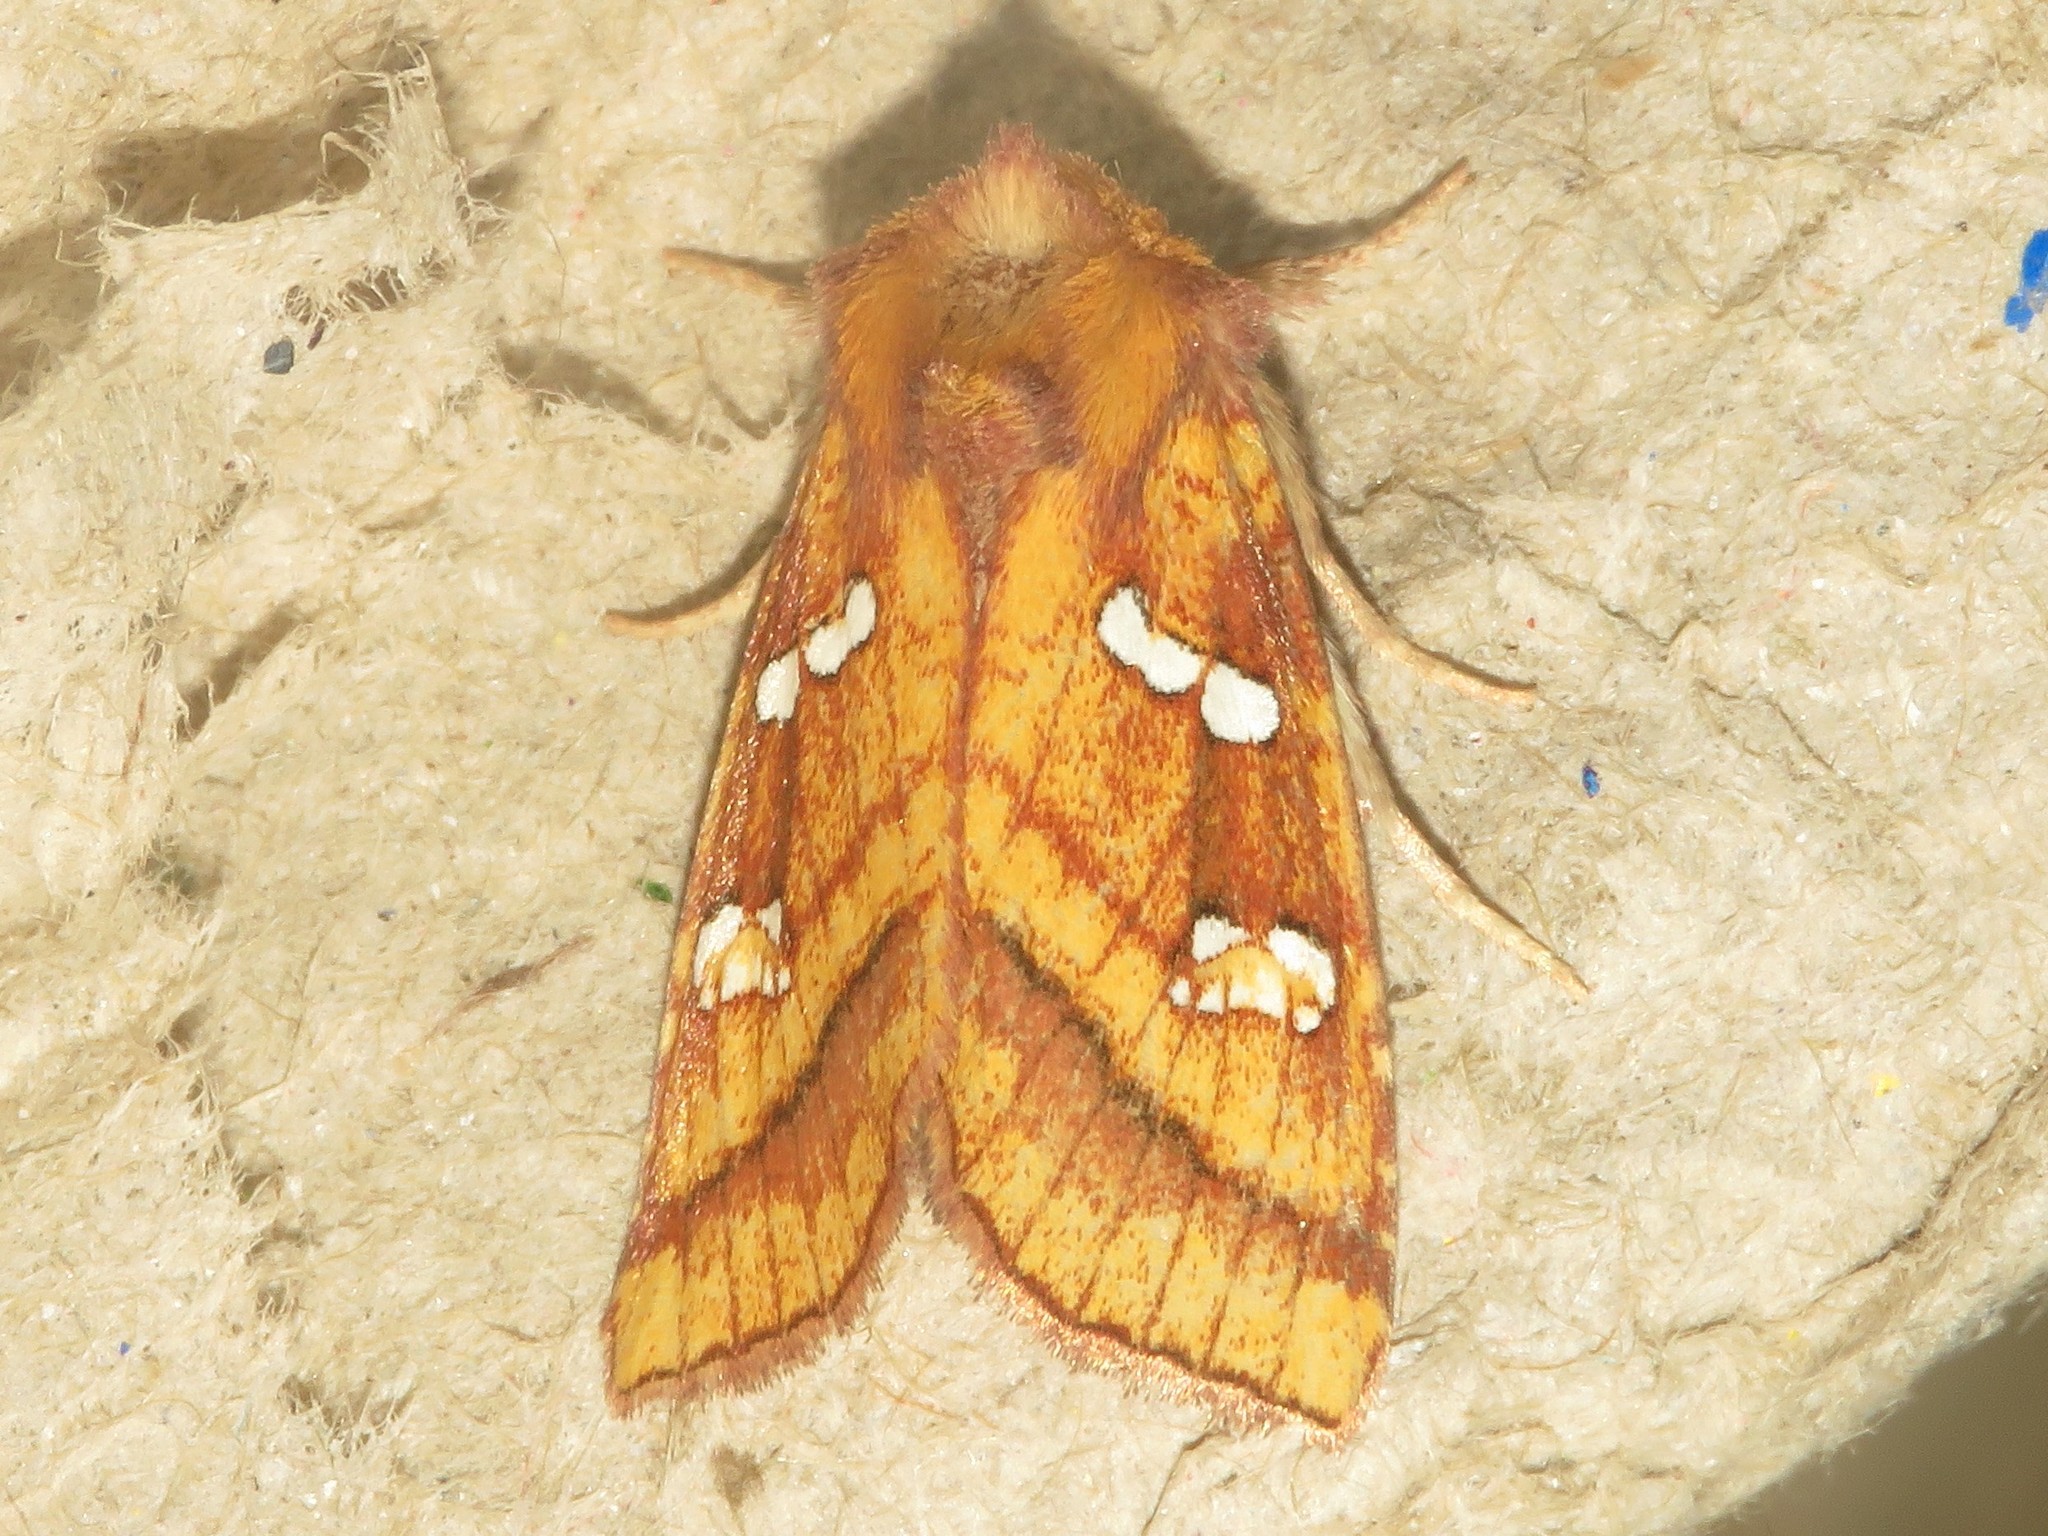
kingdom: Animalia
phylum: Arthropoda
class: Insecta
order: Lepidoptera
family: Noctuidae
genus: Papaipema
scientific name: Papaipema pterisii
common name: Bracken borer moth
